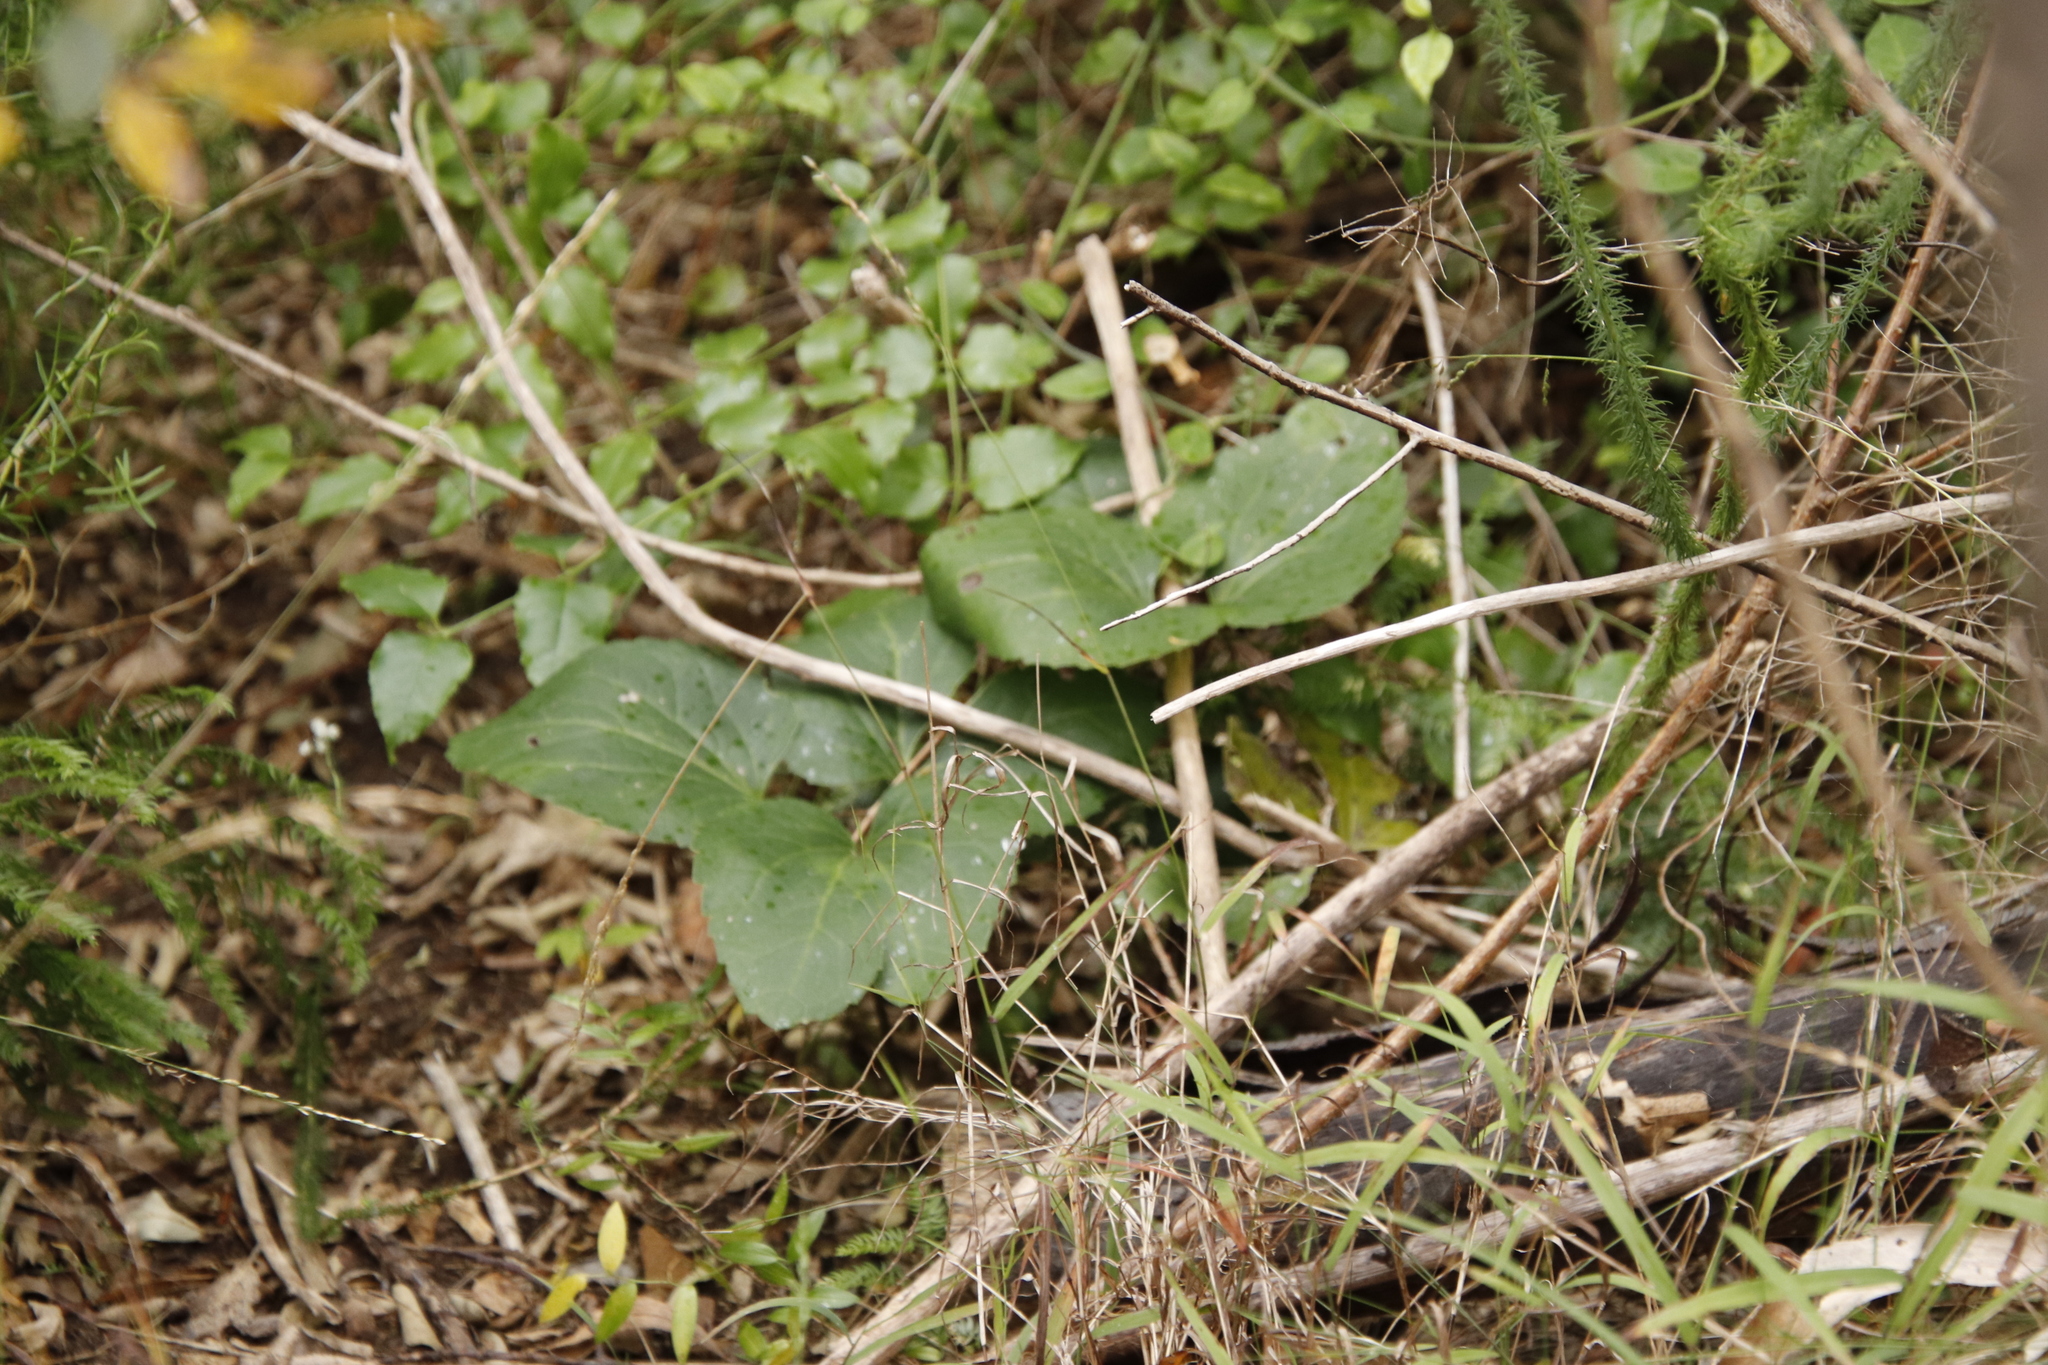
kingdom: Plantae
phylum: Tracheophyta
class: Magnoliopsida
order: Ranunculales
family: Ranunculaceae
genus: Knowltonia
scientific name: Knowltonia vesicatoria
